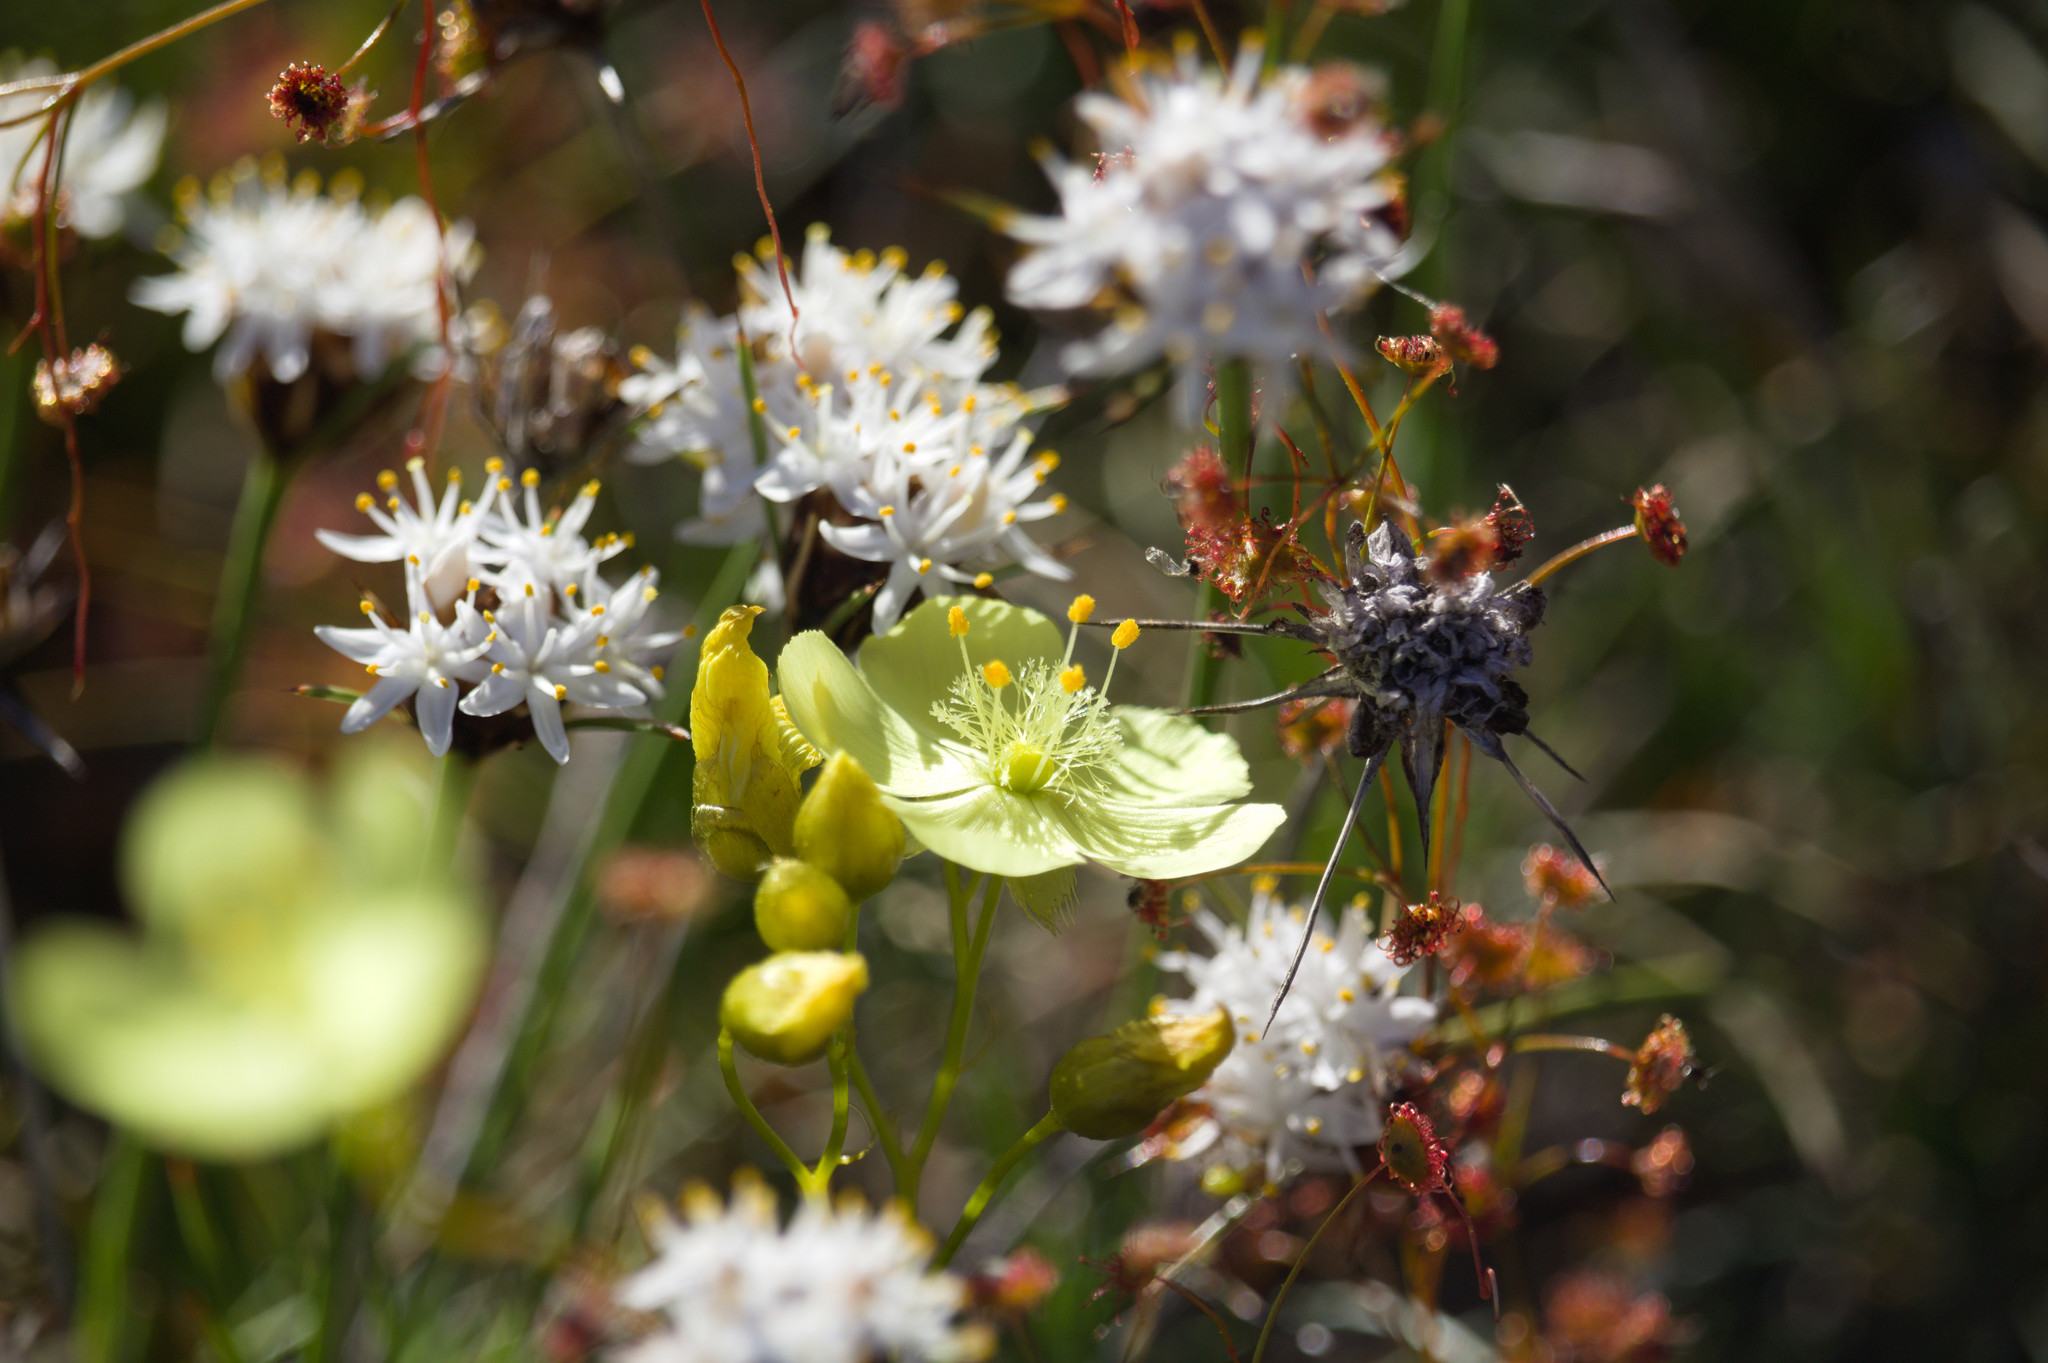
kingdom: Plantae
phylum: Tracheophyta
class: Magnoliopsida
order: Caryophyllales
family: Droseraceae
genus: Drosera
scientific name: Drosera moorei
